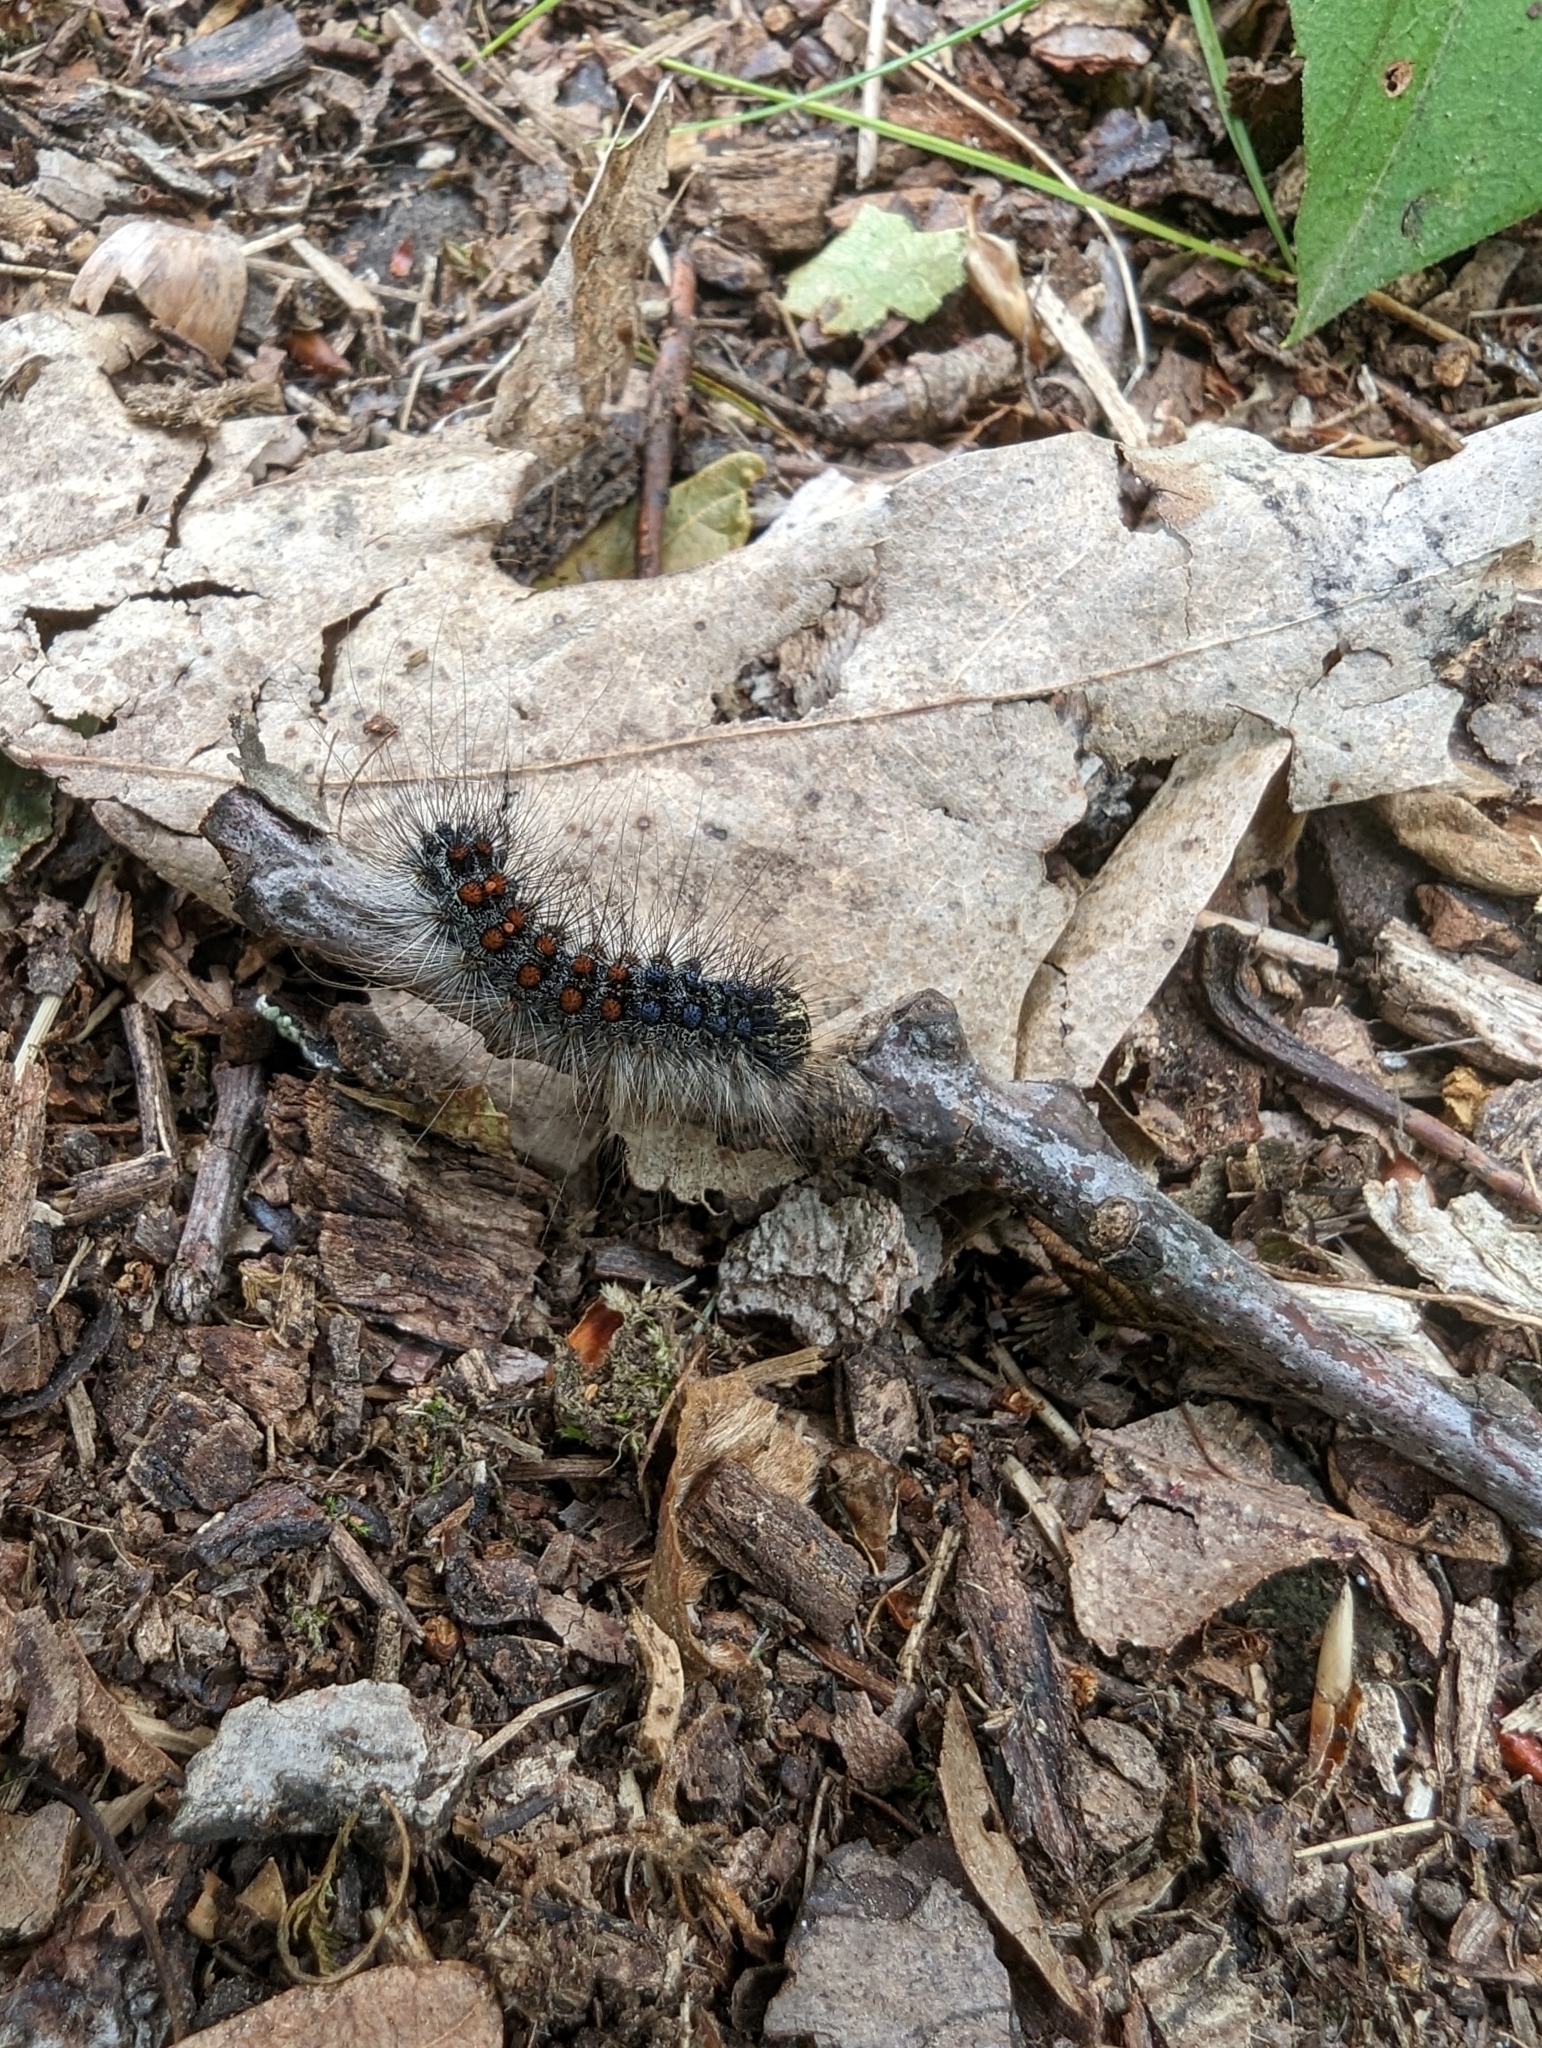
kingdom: Animalia
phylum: Arthropoda
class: Insecta
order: Lepidoptera
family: Erebidae
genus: Lymantria
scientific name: Lymantria dispar
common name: Gypsy moth
